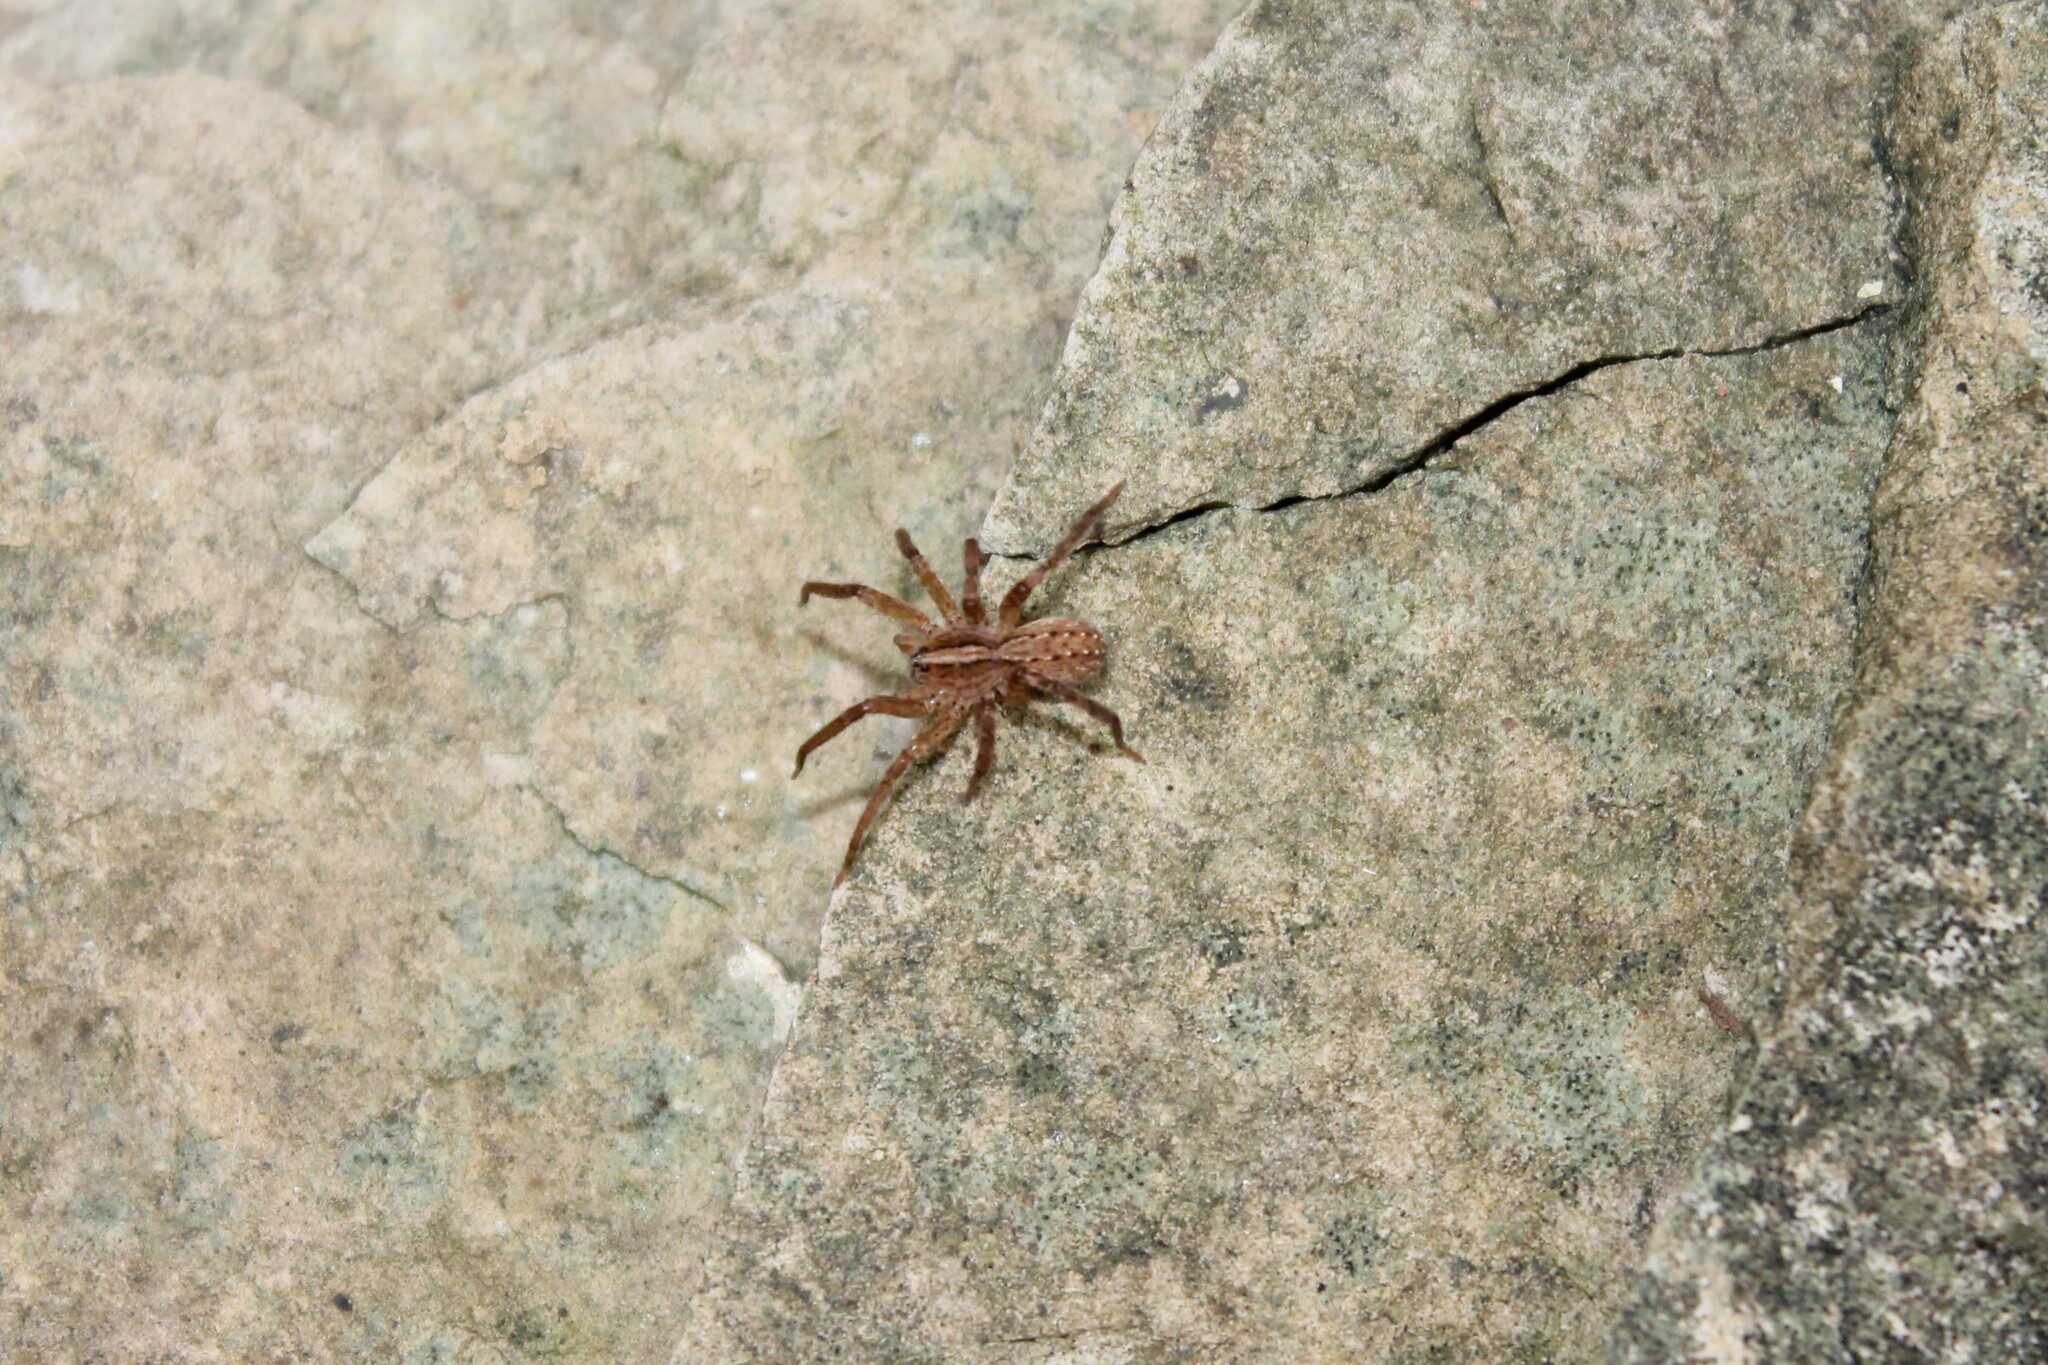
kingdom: Animalia
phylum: Arthropoda
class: Arachnida
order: Araneae
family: Ctenidae
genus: Anahita
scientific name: Anahita punctulata
